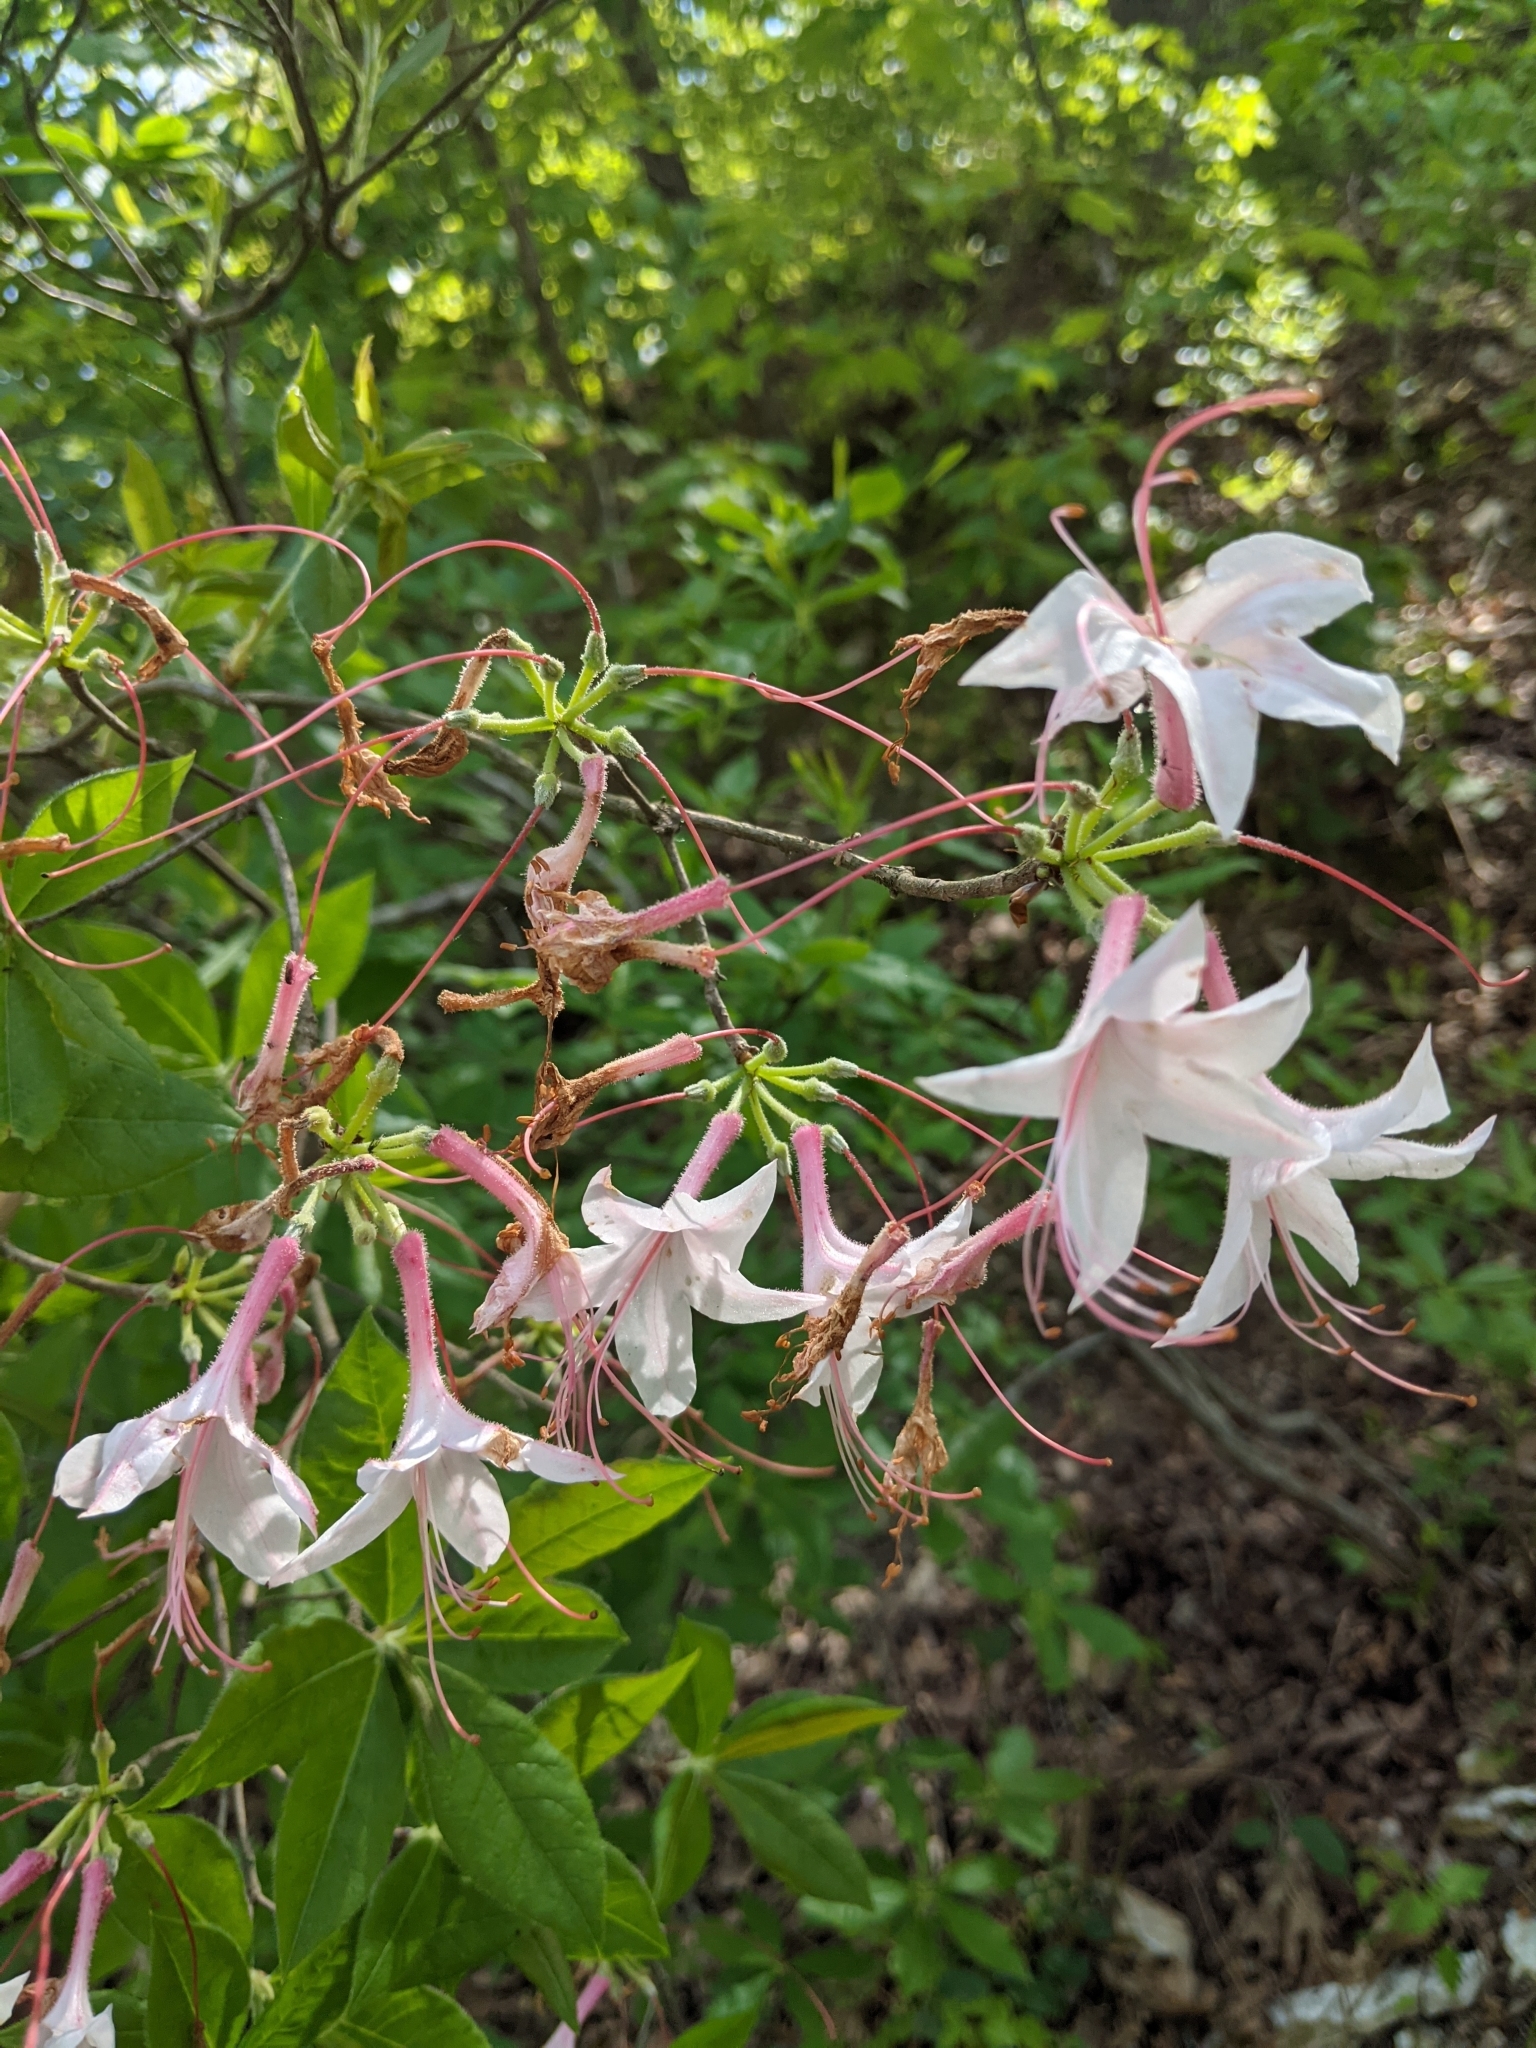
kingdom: Plantae
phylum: Tracheophyta
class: Magnoliopsida
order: Ericales
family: Ericaceae
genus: Rhododendron
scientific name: Rhododendron roseum
